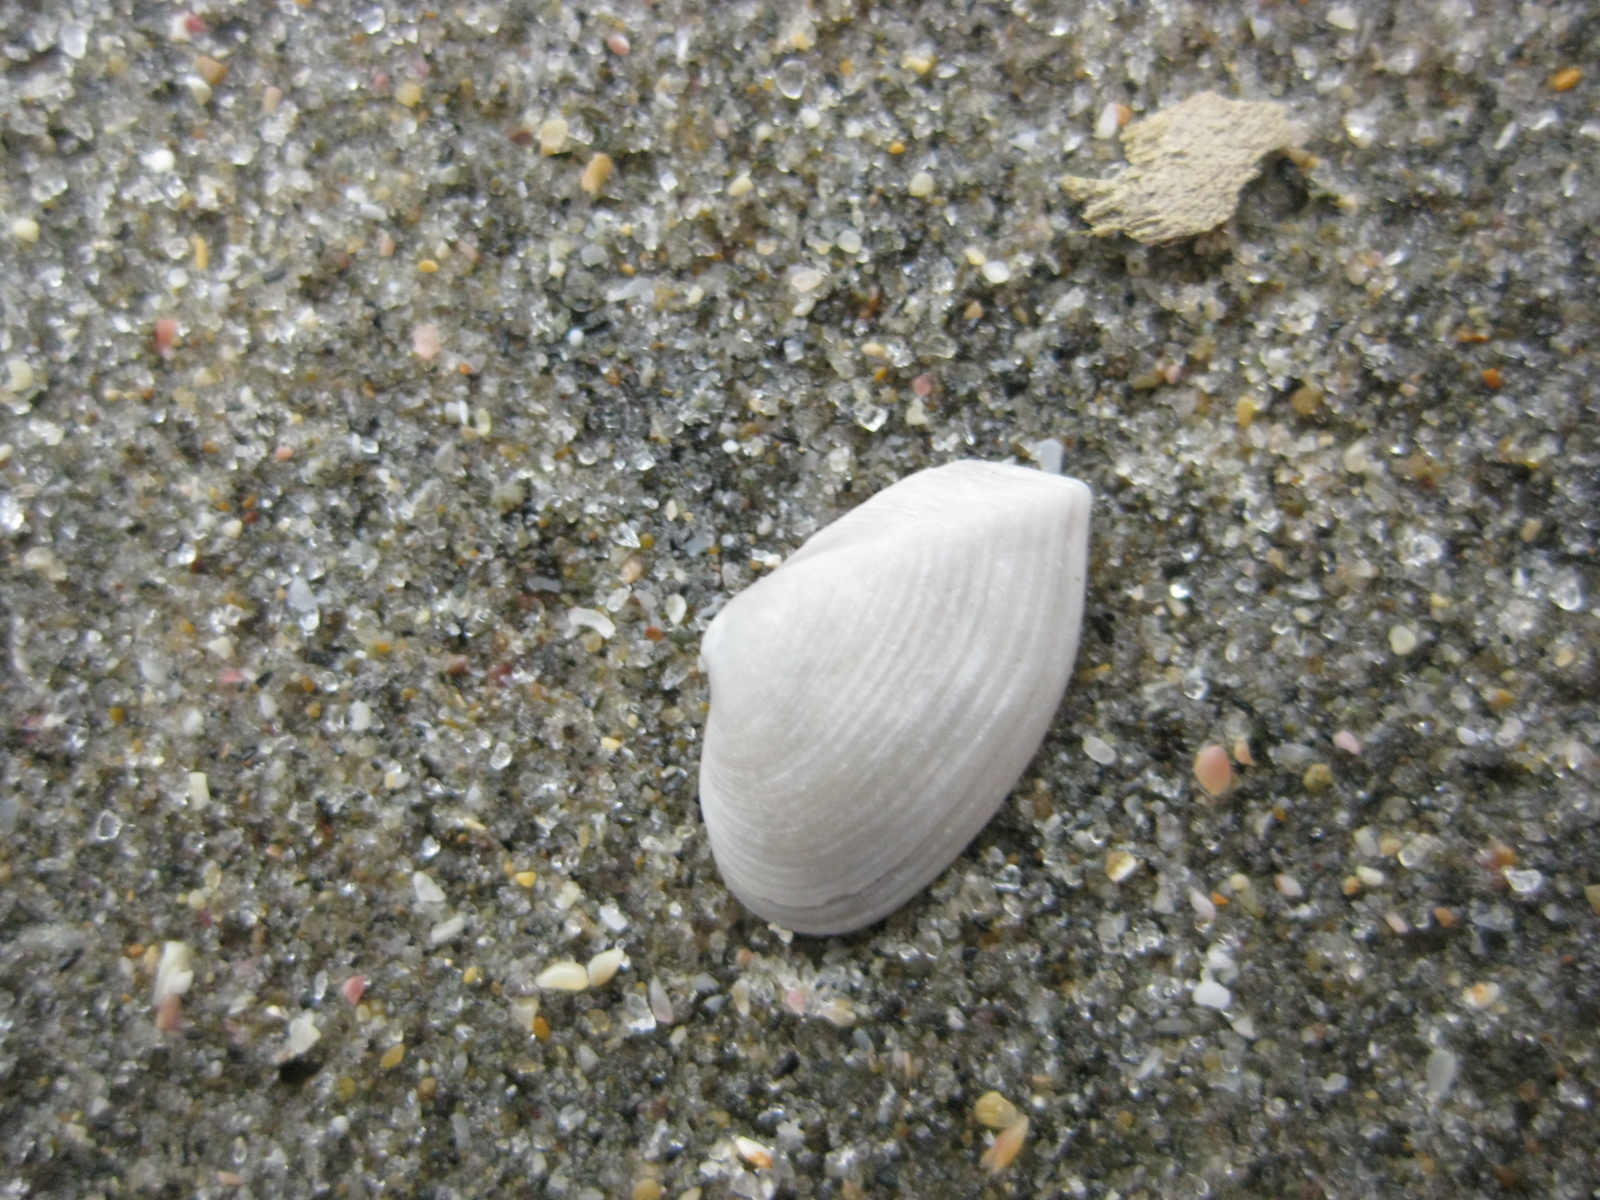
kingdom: Animalia
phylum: Mollusca
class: Bivalvia
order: Myida
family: Corbulidae
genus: Corbula
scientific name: Corbula zelandica
